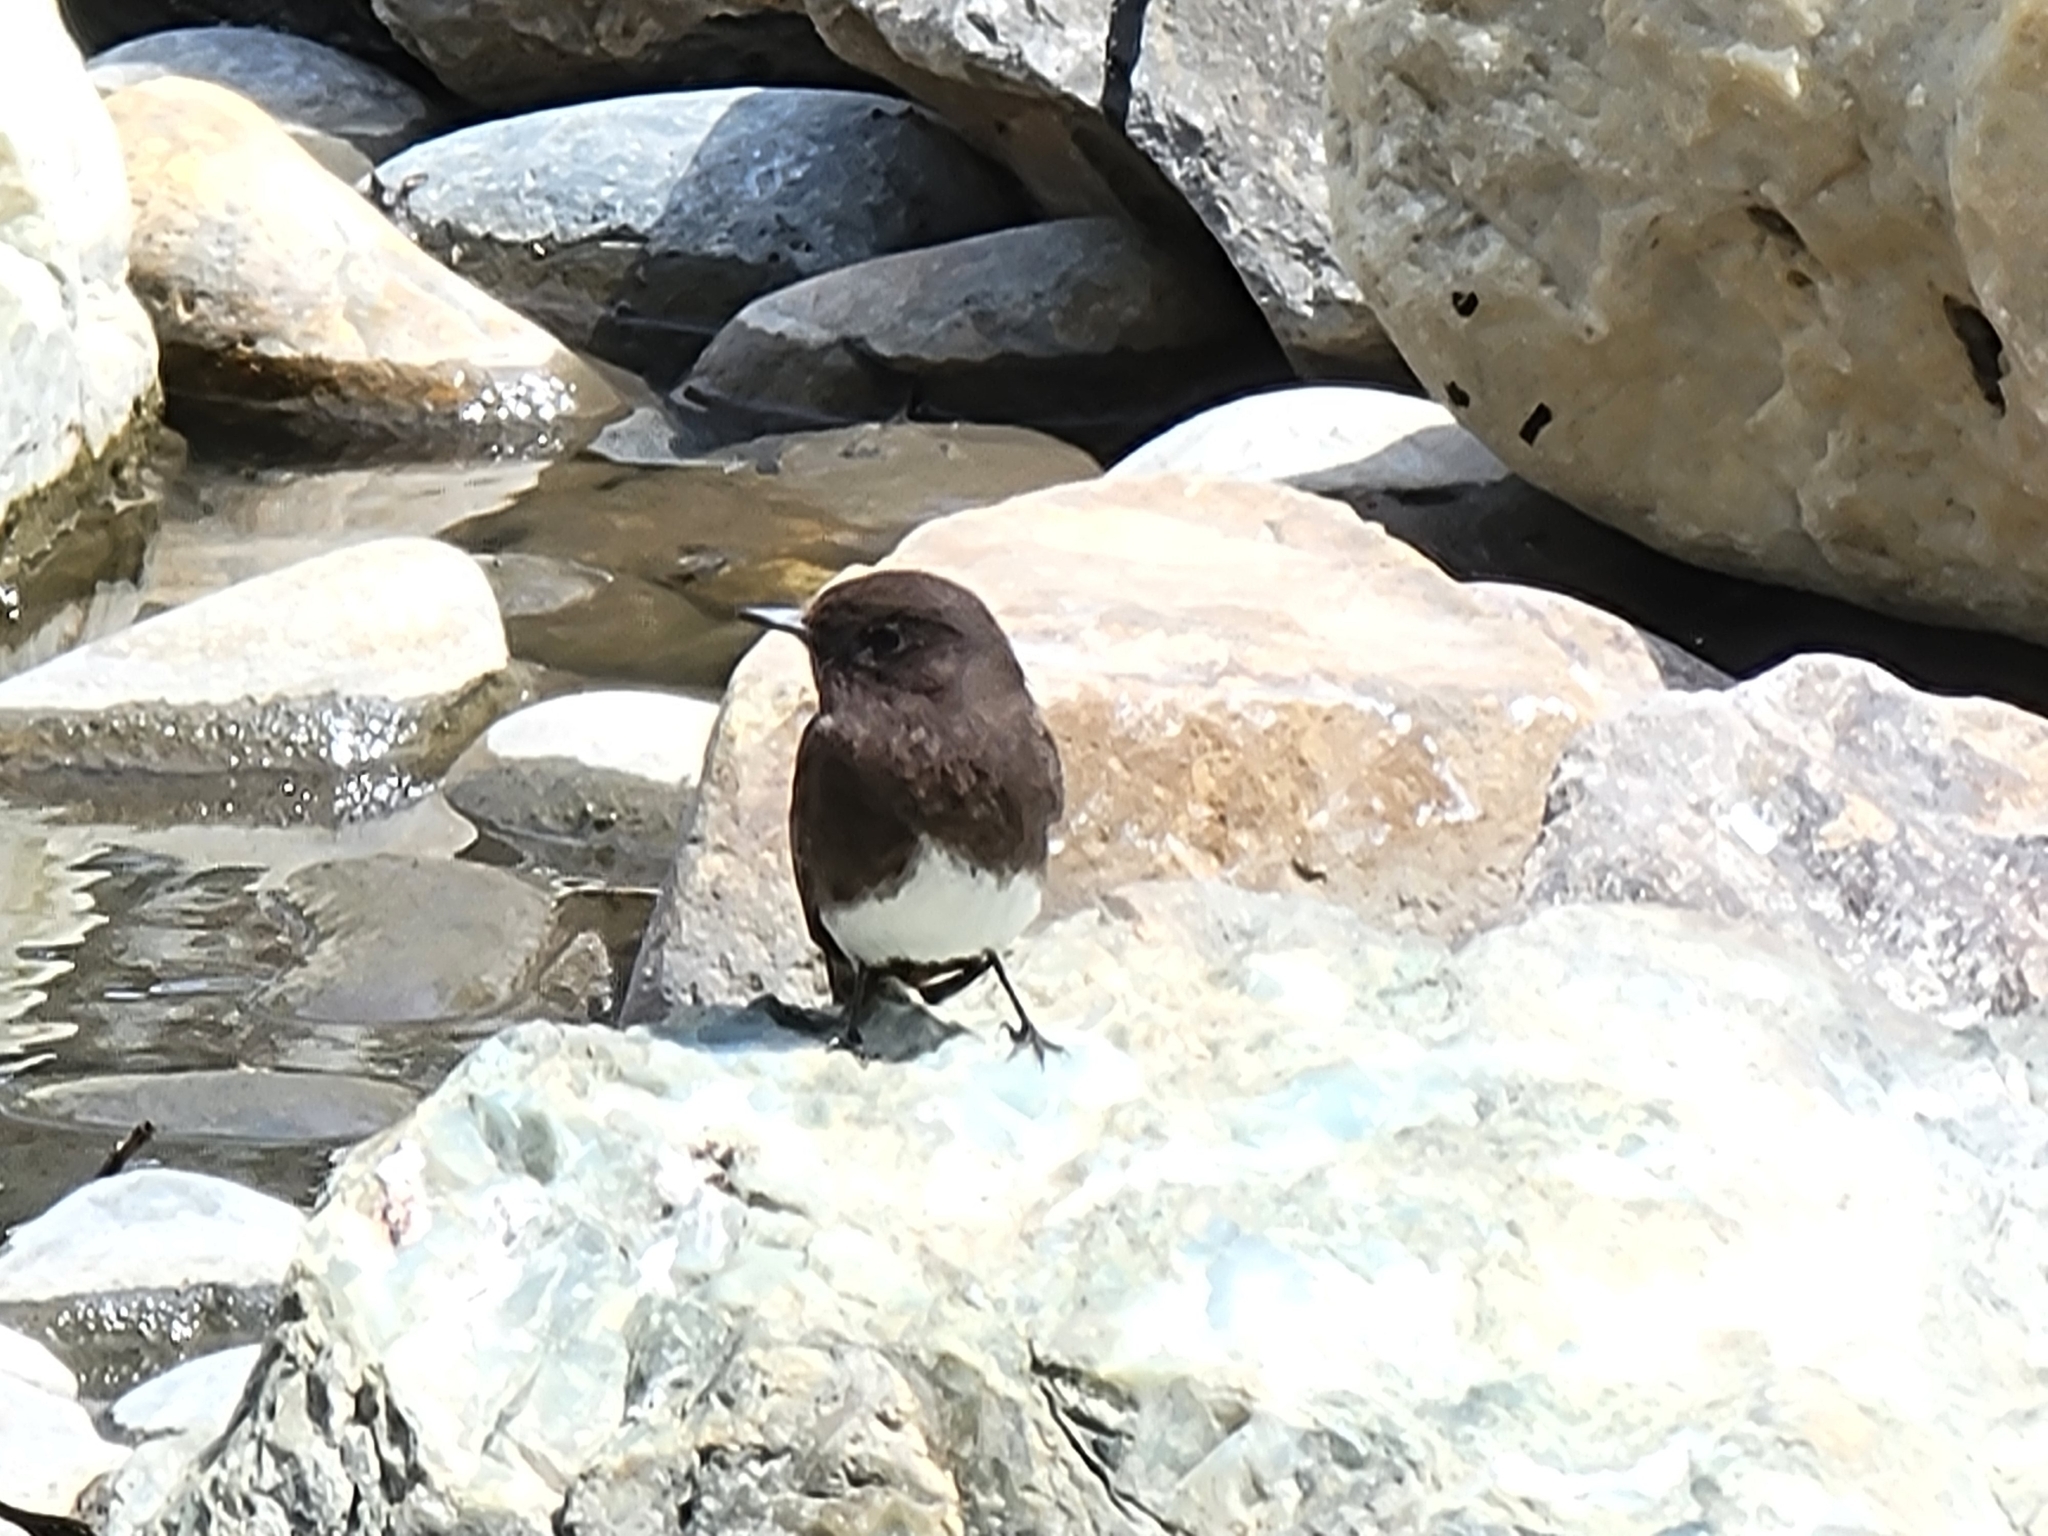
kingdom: Animalia
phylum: Chordata
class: Aves
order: Passeriformes
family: Tyrannidae
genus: Sayornis
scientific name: Sayornis nigricans
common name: Black phoebe
